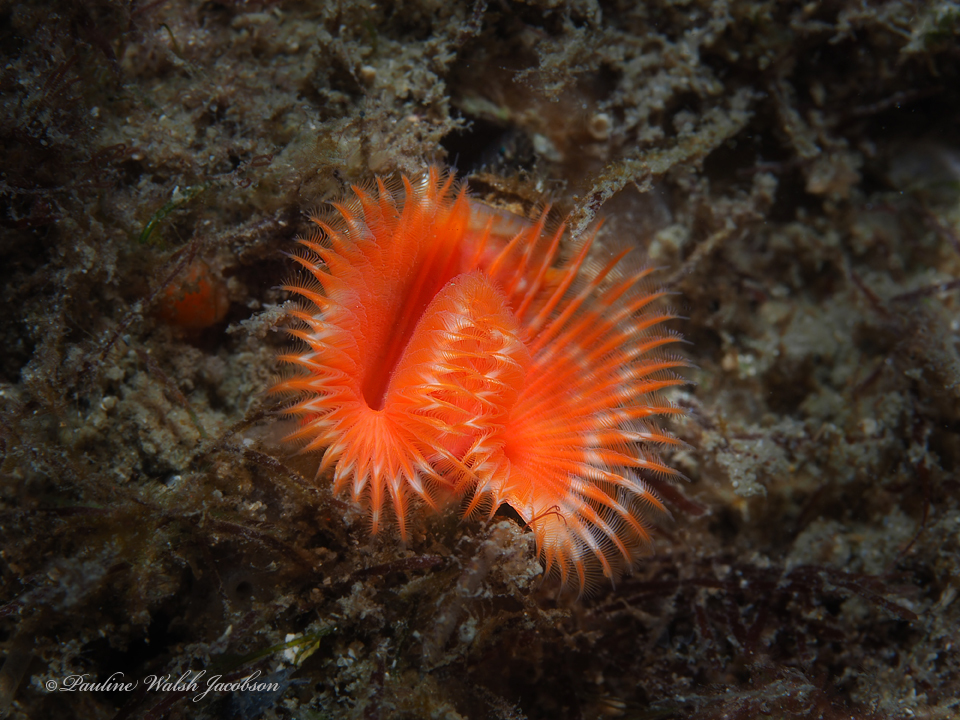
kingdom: Animalia
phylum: Annelida
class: Polychaeta
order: Sabellida
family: Serpulidae
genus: Pomatostegus
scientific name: Pomatostegus stellatus
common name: Star tubeworm
